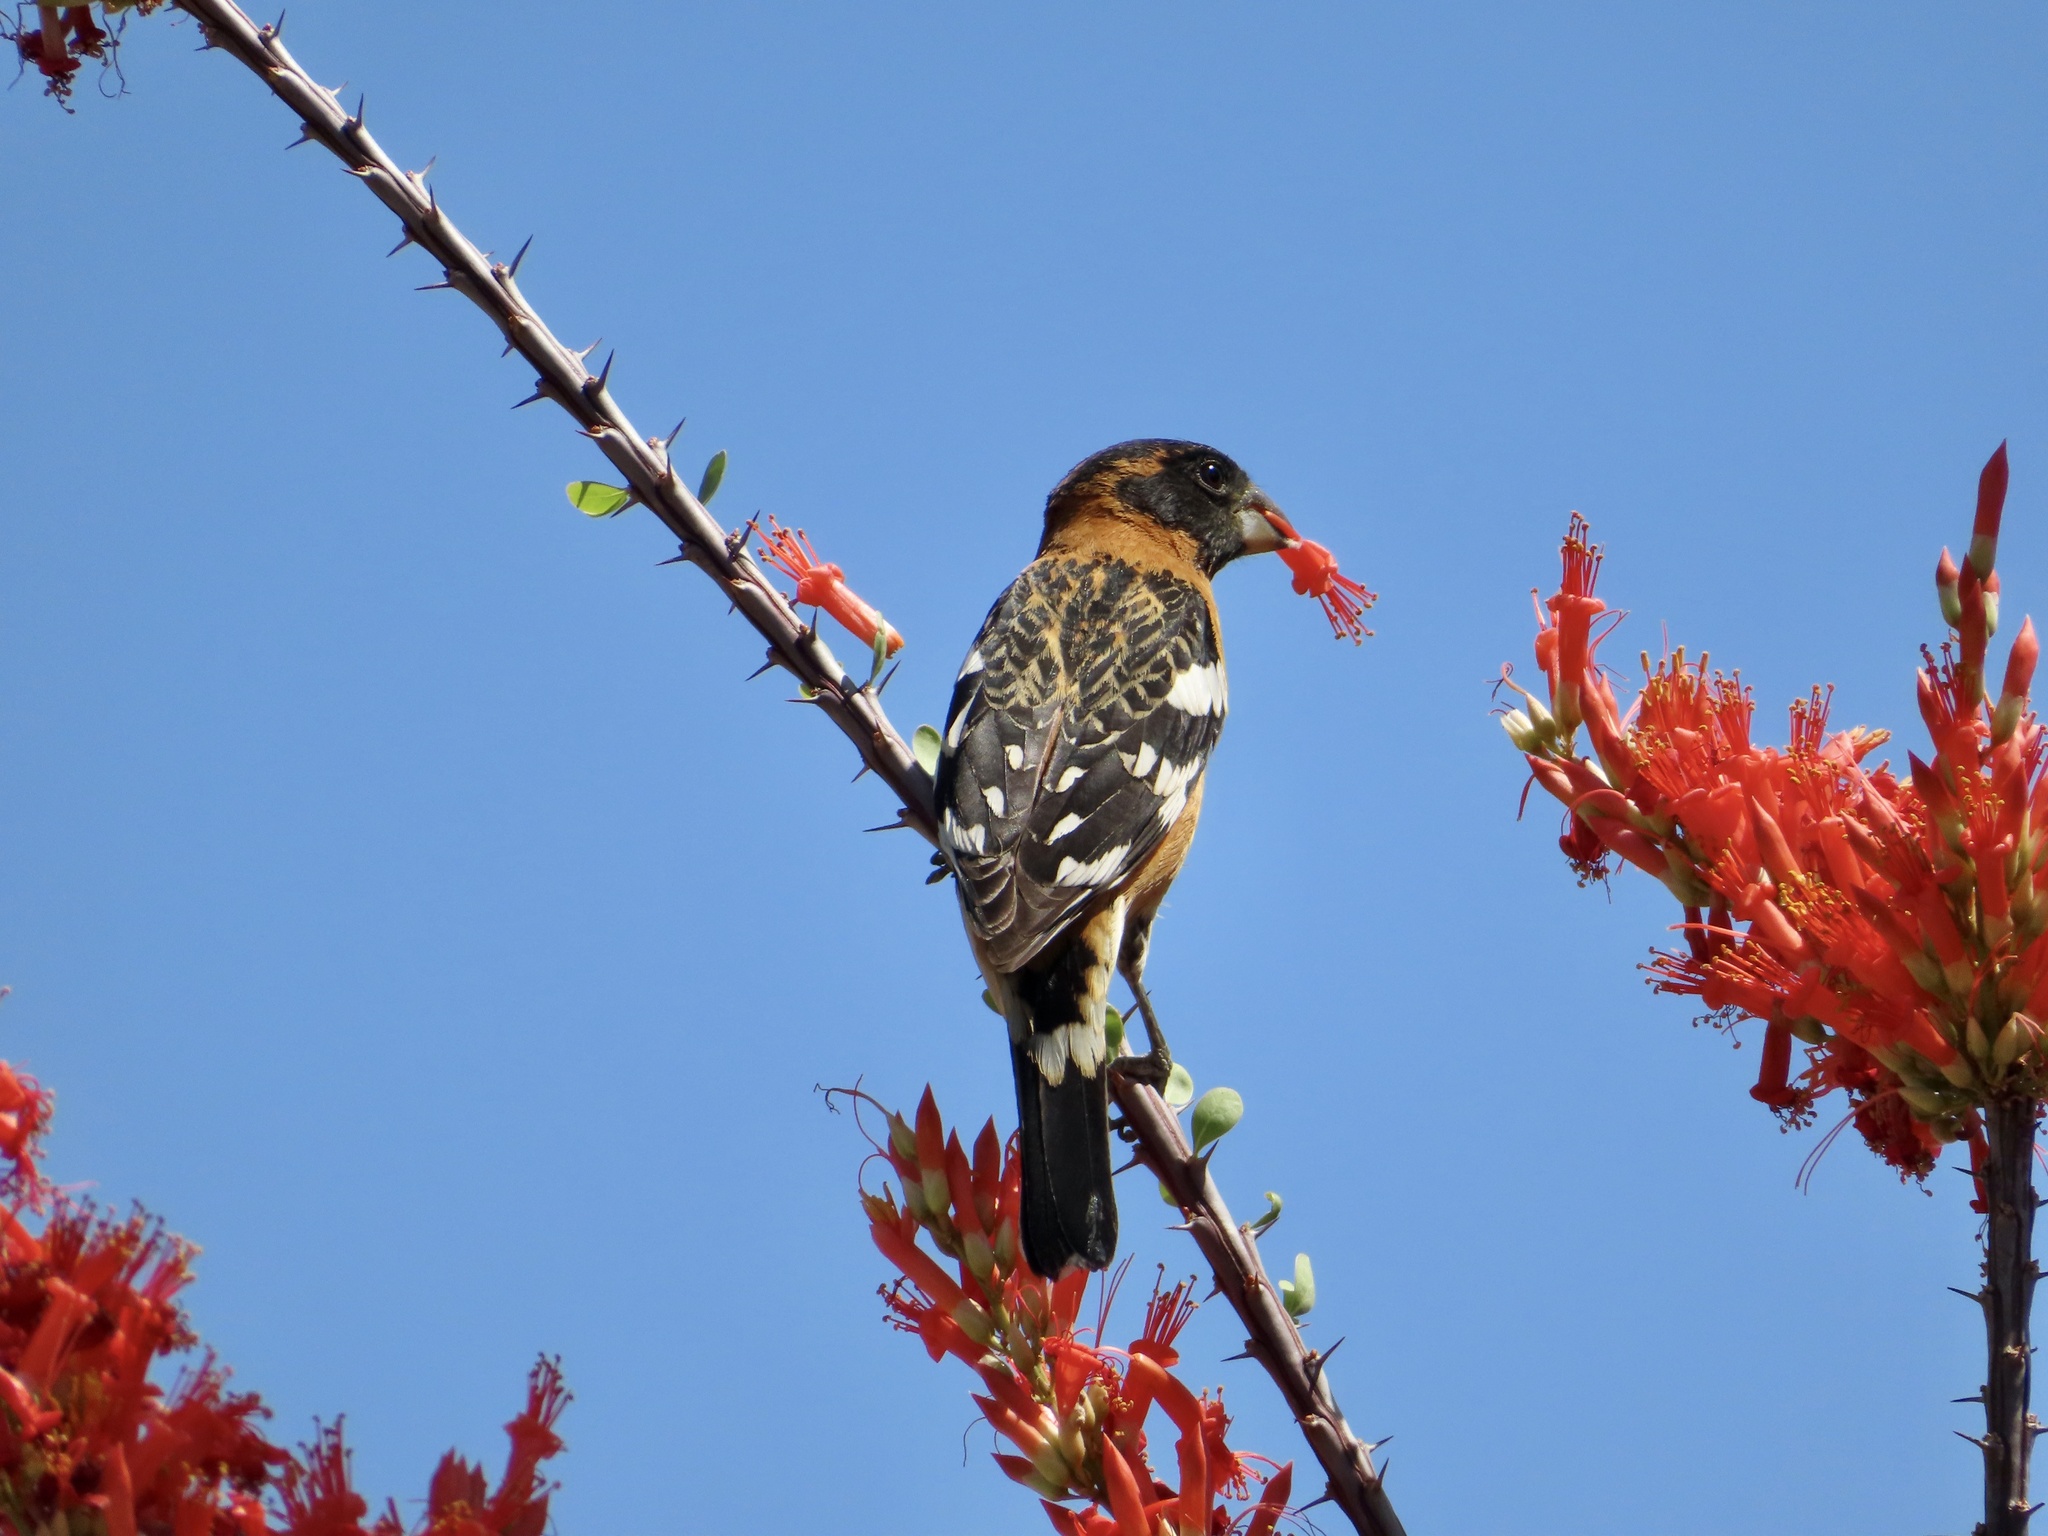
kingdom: Animalia
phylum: Chordata
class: Aves
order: Passeriformes
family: Cardinalidae
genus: Pheucticus
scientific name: Pheucticus melanocephalus
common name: Black-headed grosbeak
